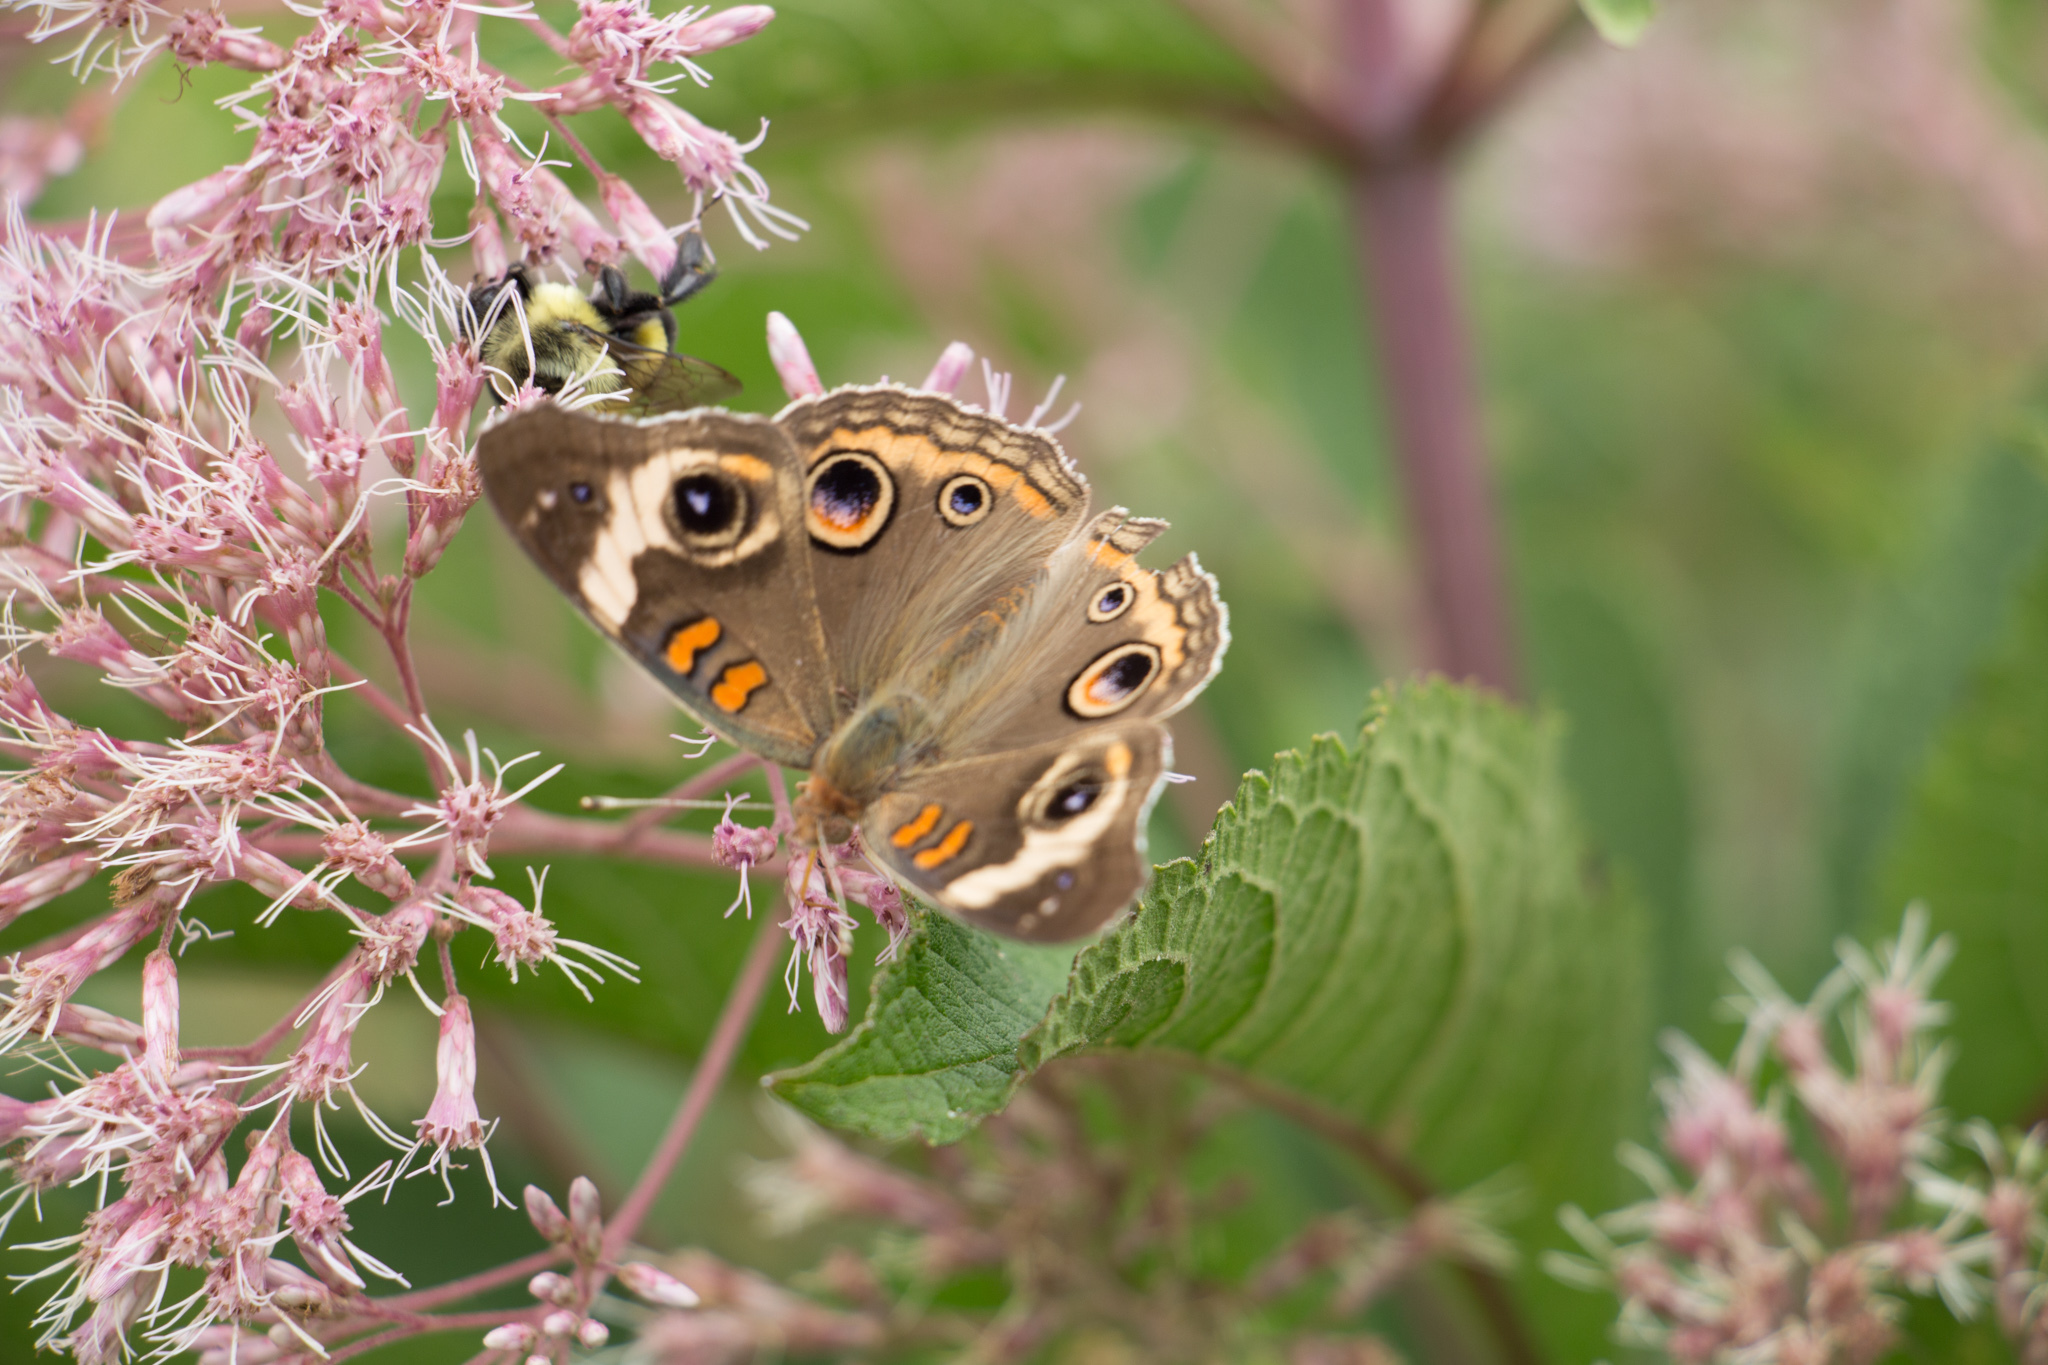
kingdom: Animalia
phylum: Arthropoda
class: Insecta
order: Lepidoptera
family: Nymphalidae
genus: Junonia
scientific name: Junonia coenia
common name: Common buckeye
